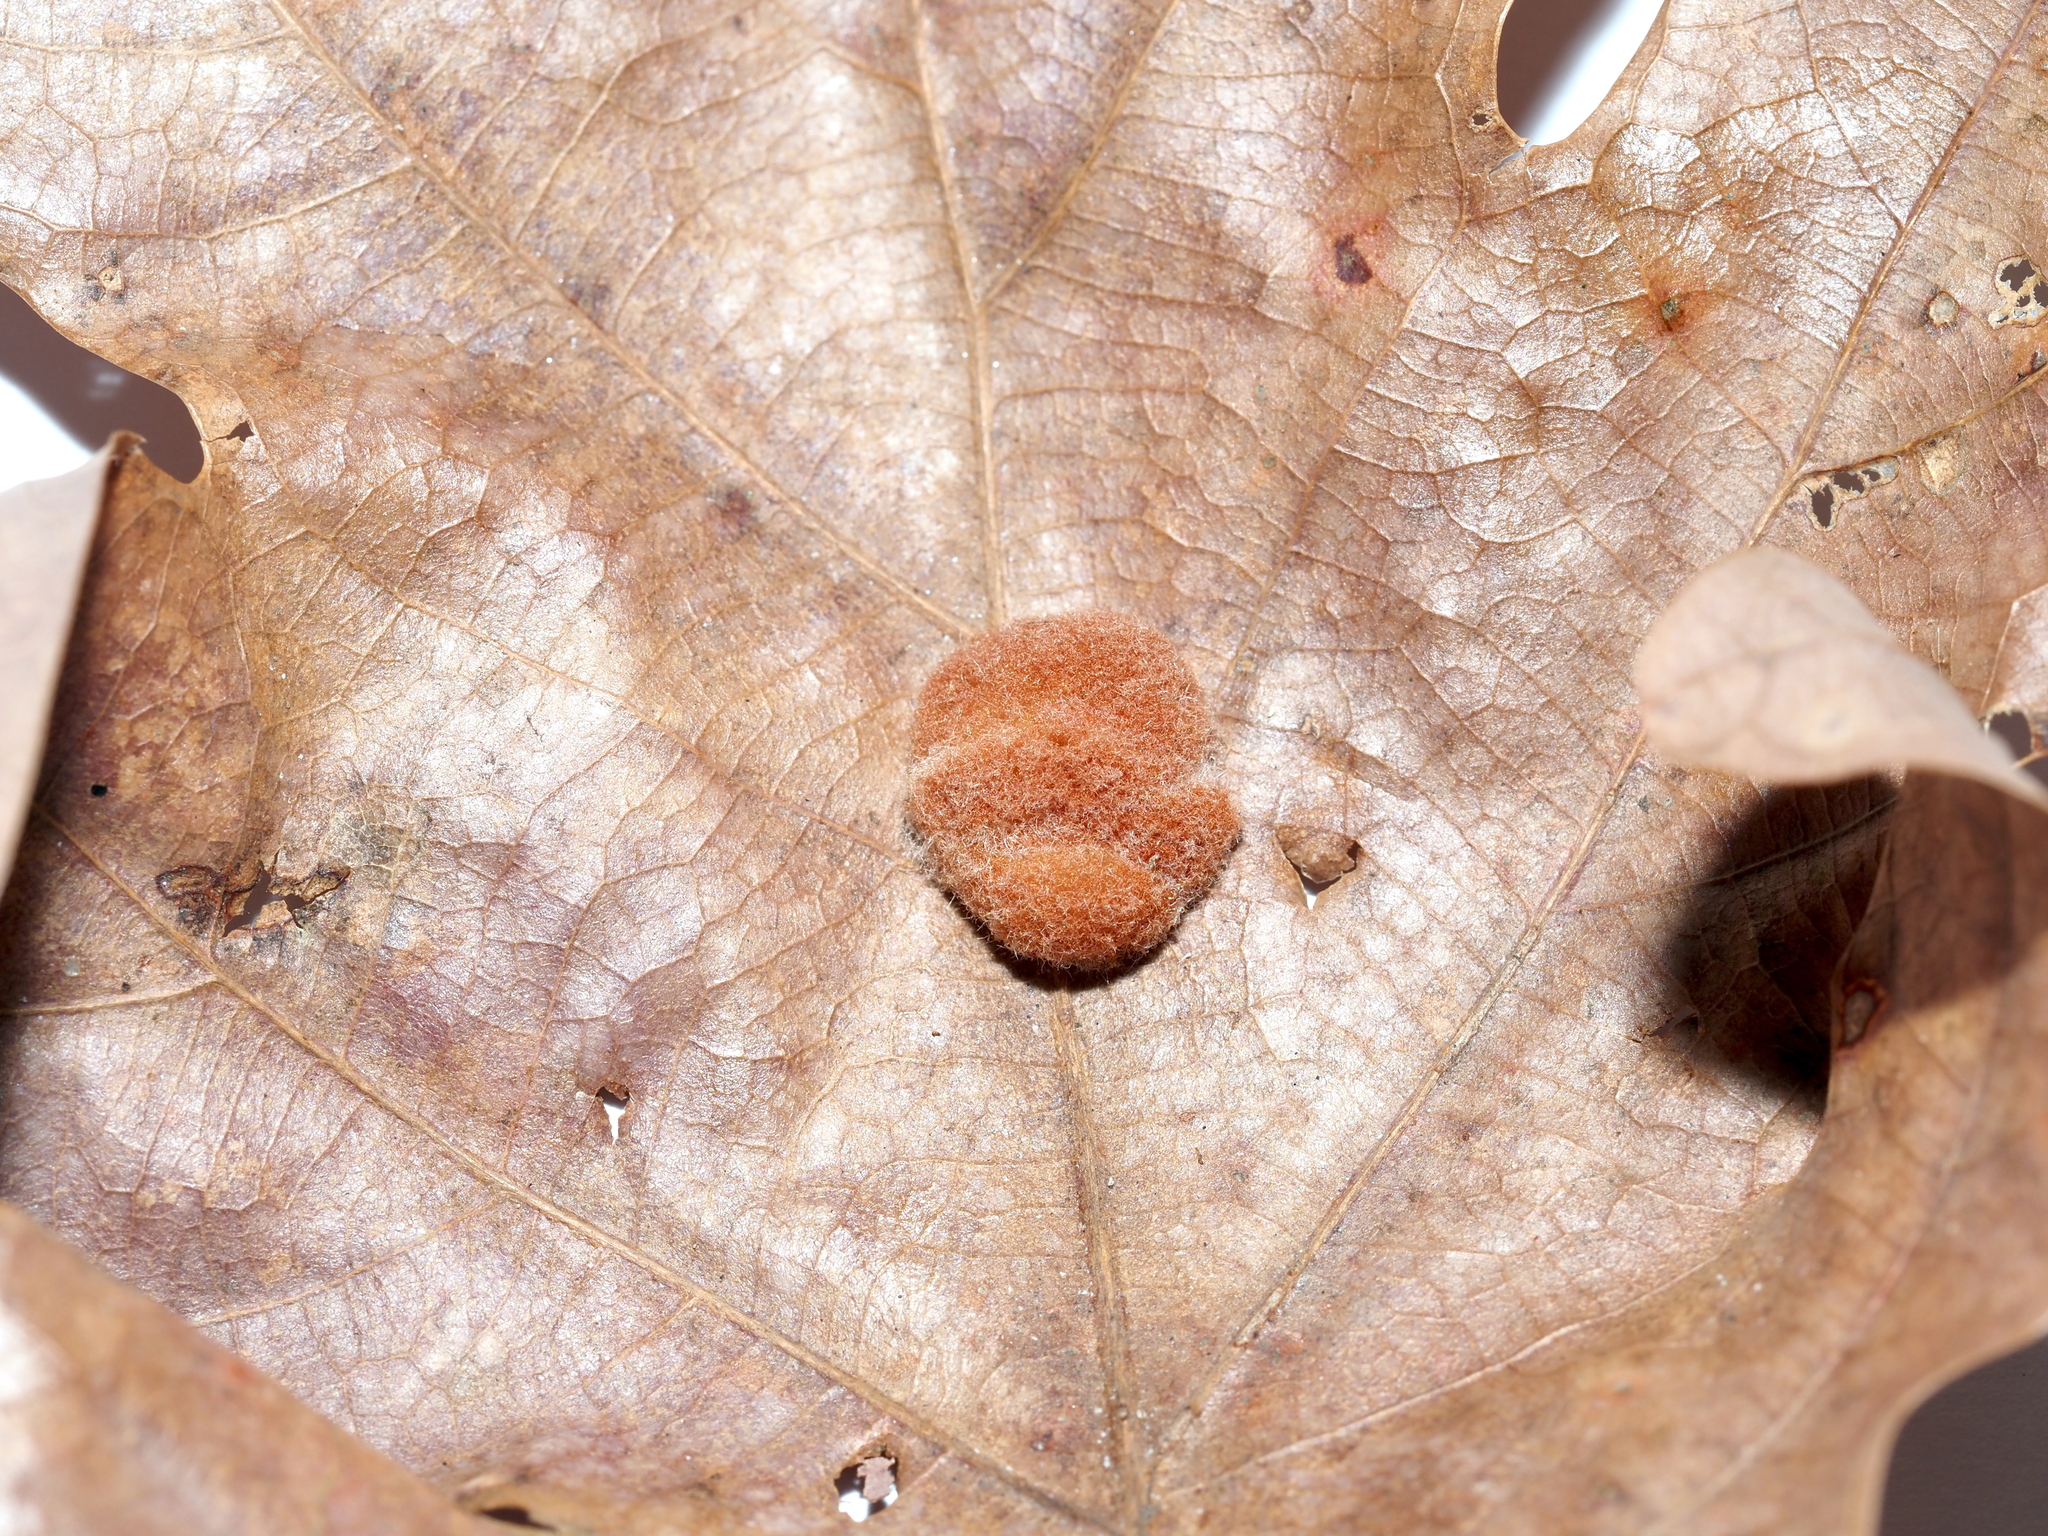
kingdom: Animalia
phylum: Arthropoda
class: Insecta
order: Hymenoptera
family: Cynipidae
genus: Andricus
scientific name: Andricus quercusflocci
